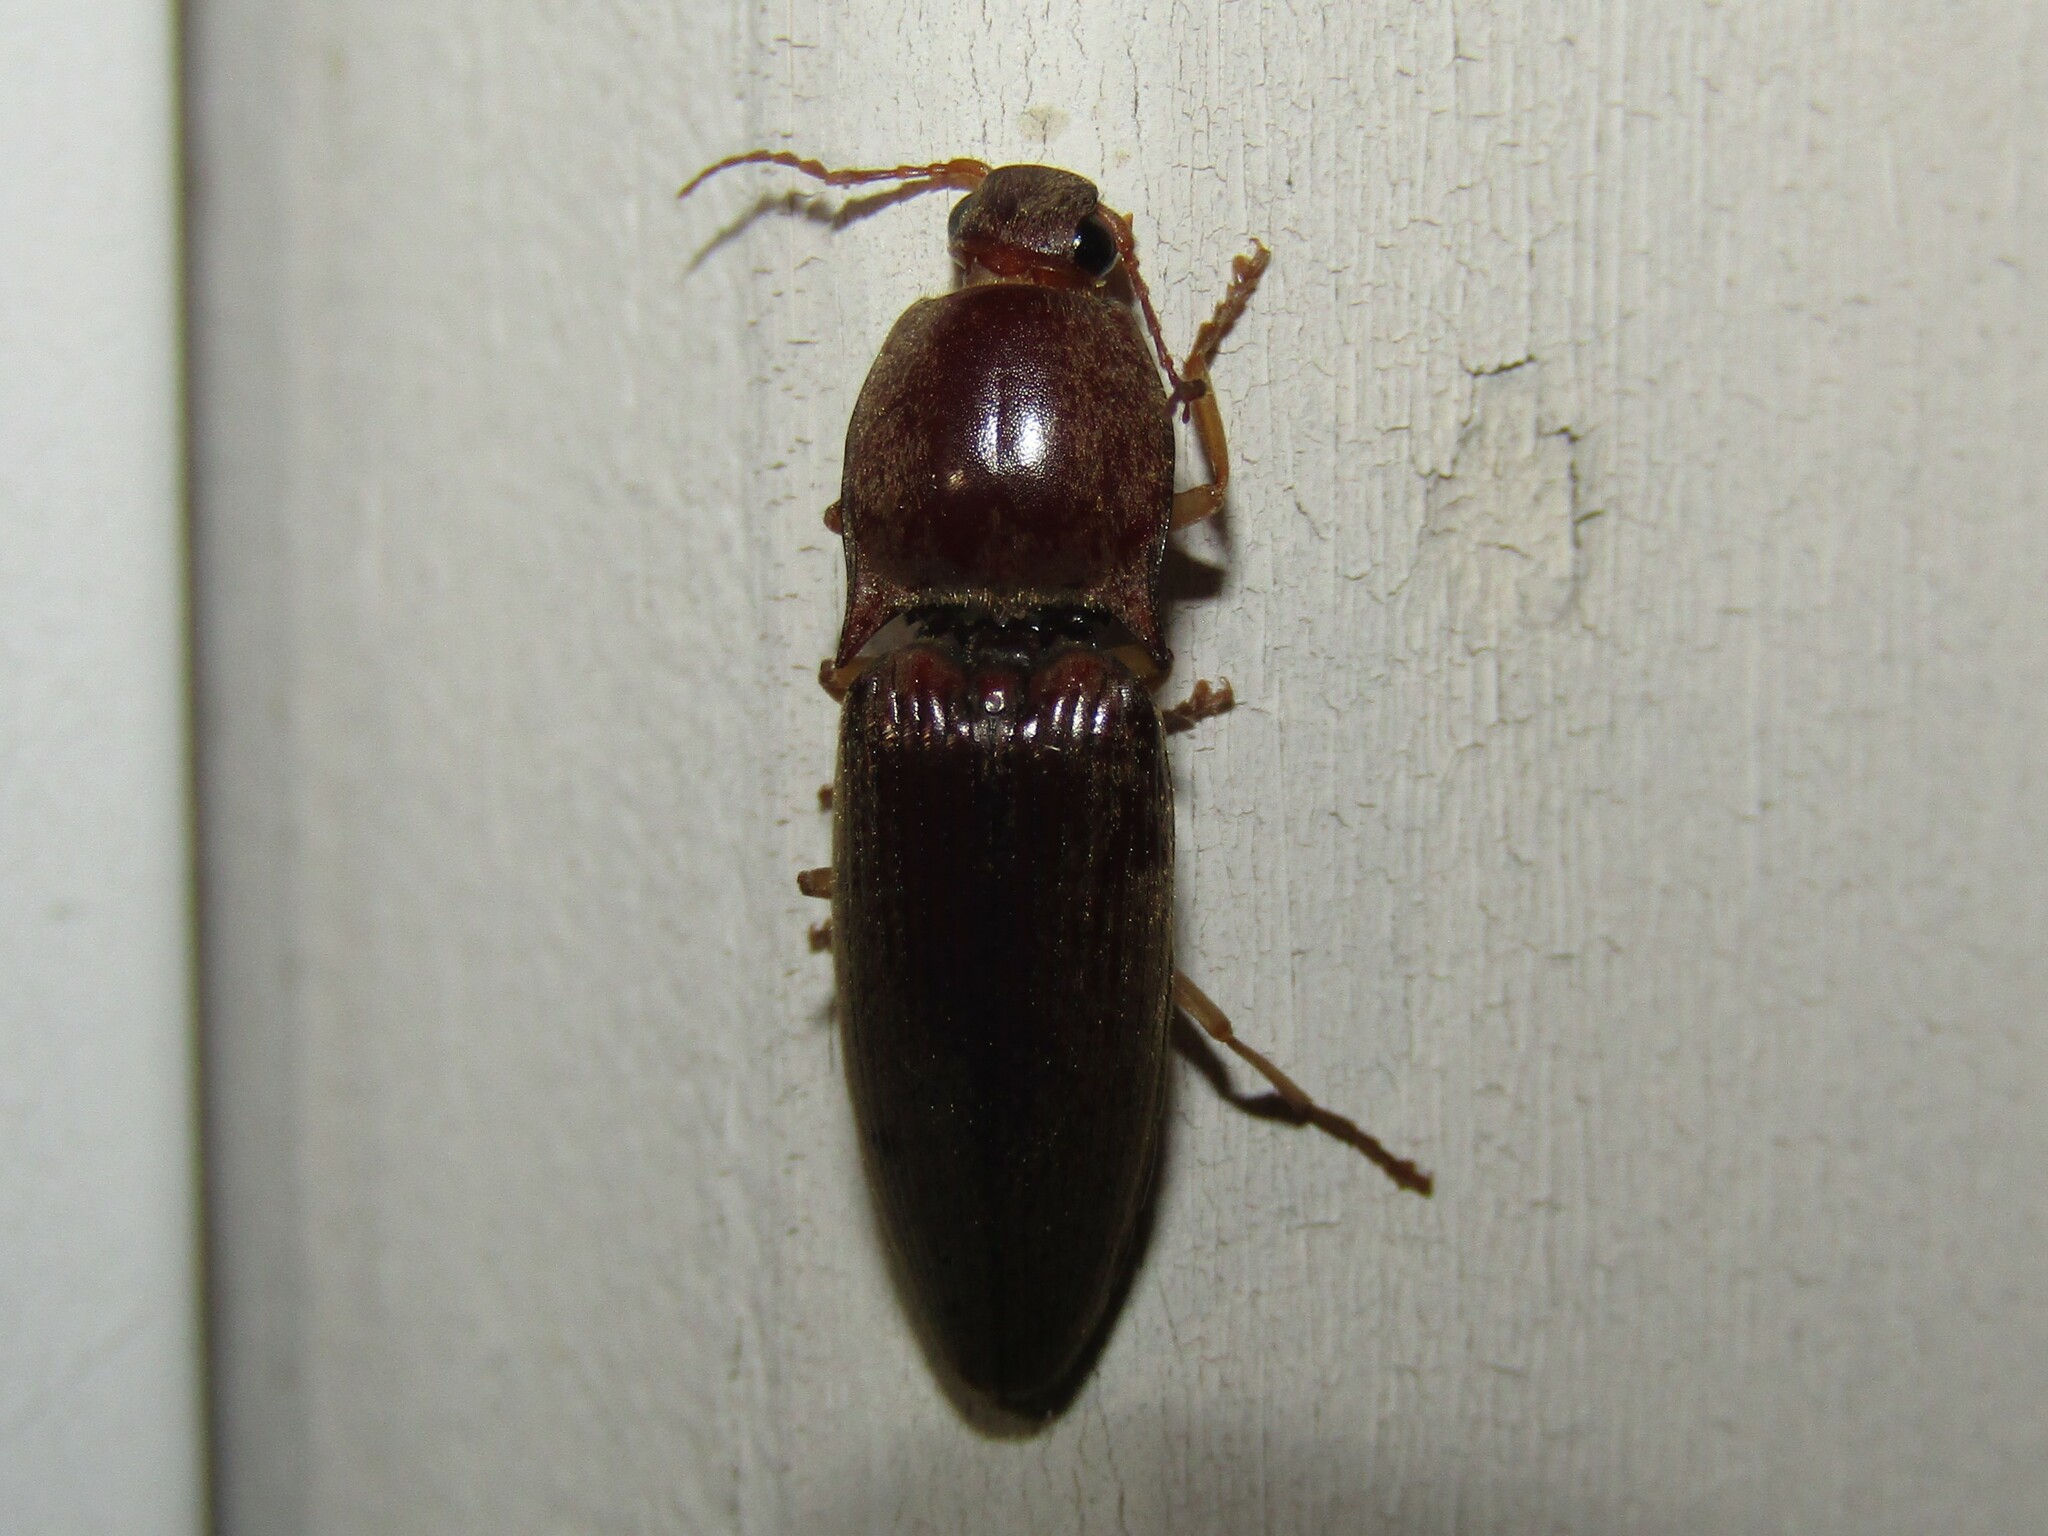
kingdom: Animalia
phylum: Arthropoda
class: Insecta
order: Coleoptera
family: Elateridae
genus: Monocrepidius
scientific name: Monocrepidius lividus
